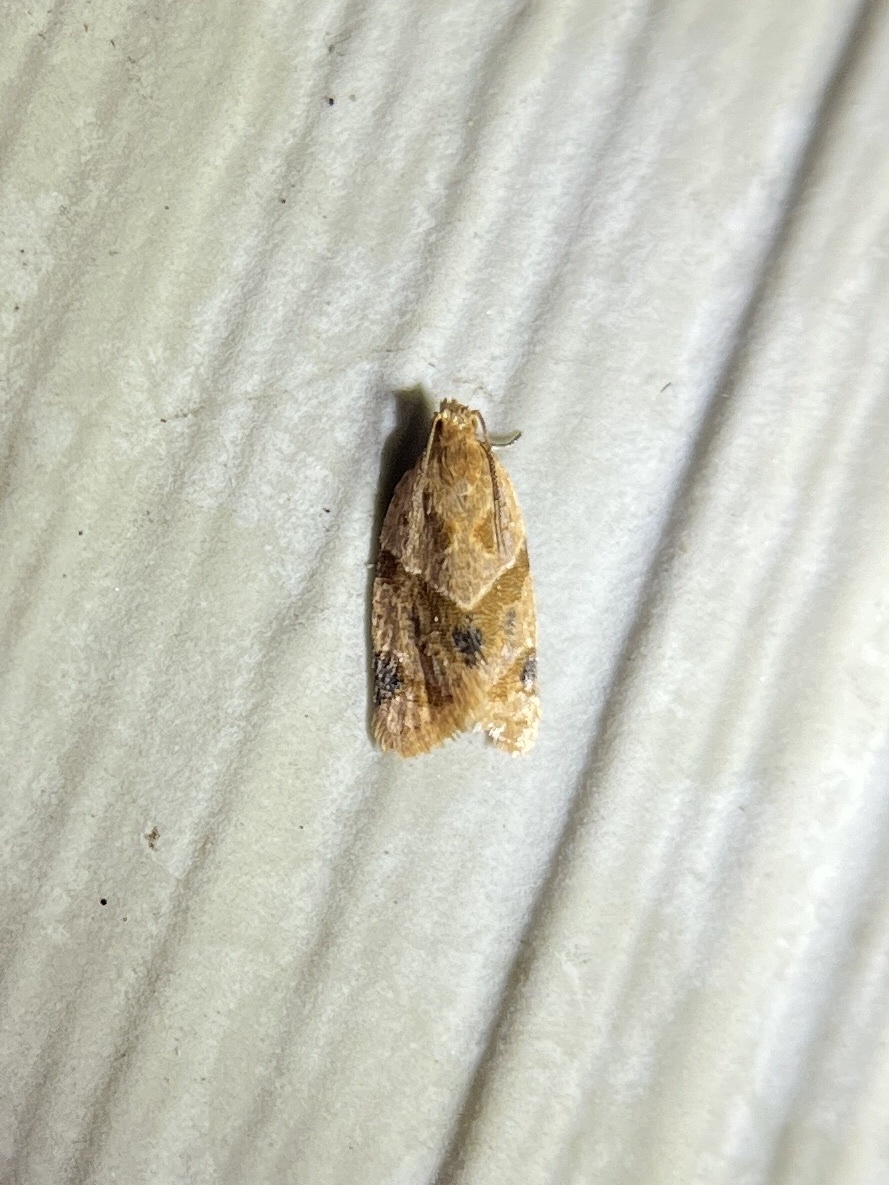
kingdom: Animalia
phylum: Arthropoda
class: Insecta
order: Lepidoptera
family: Tortricidae
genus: Clepsis
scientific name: Clepsis peritana
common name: Garden tortrix
